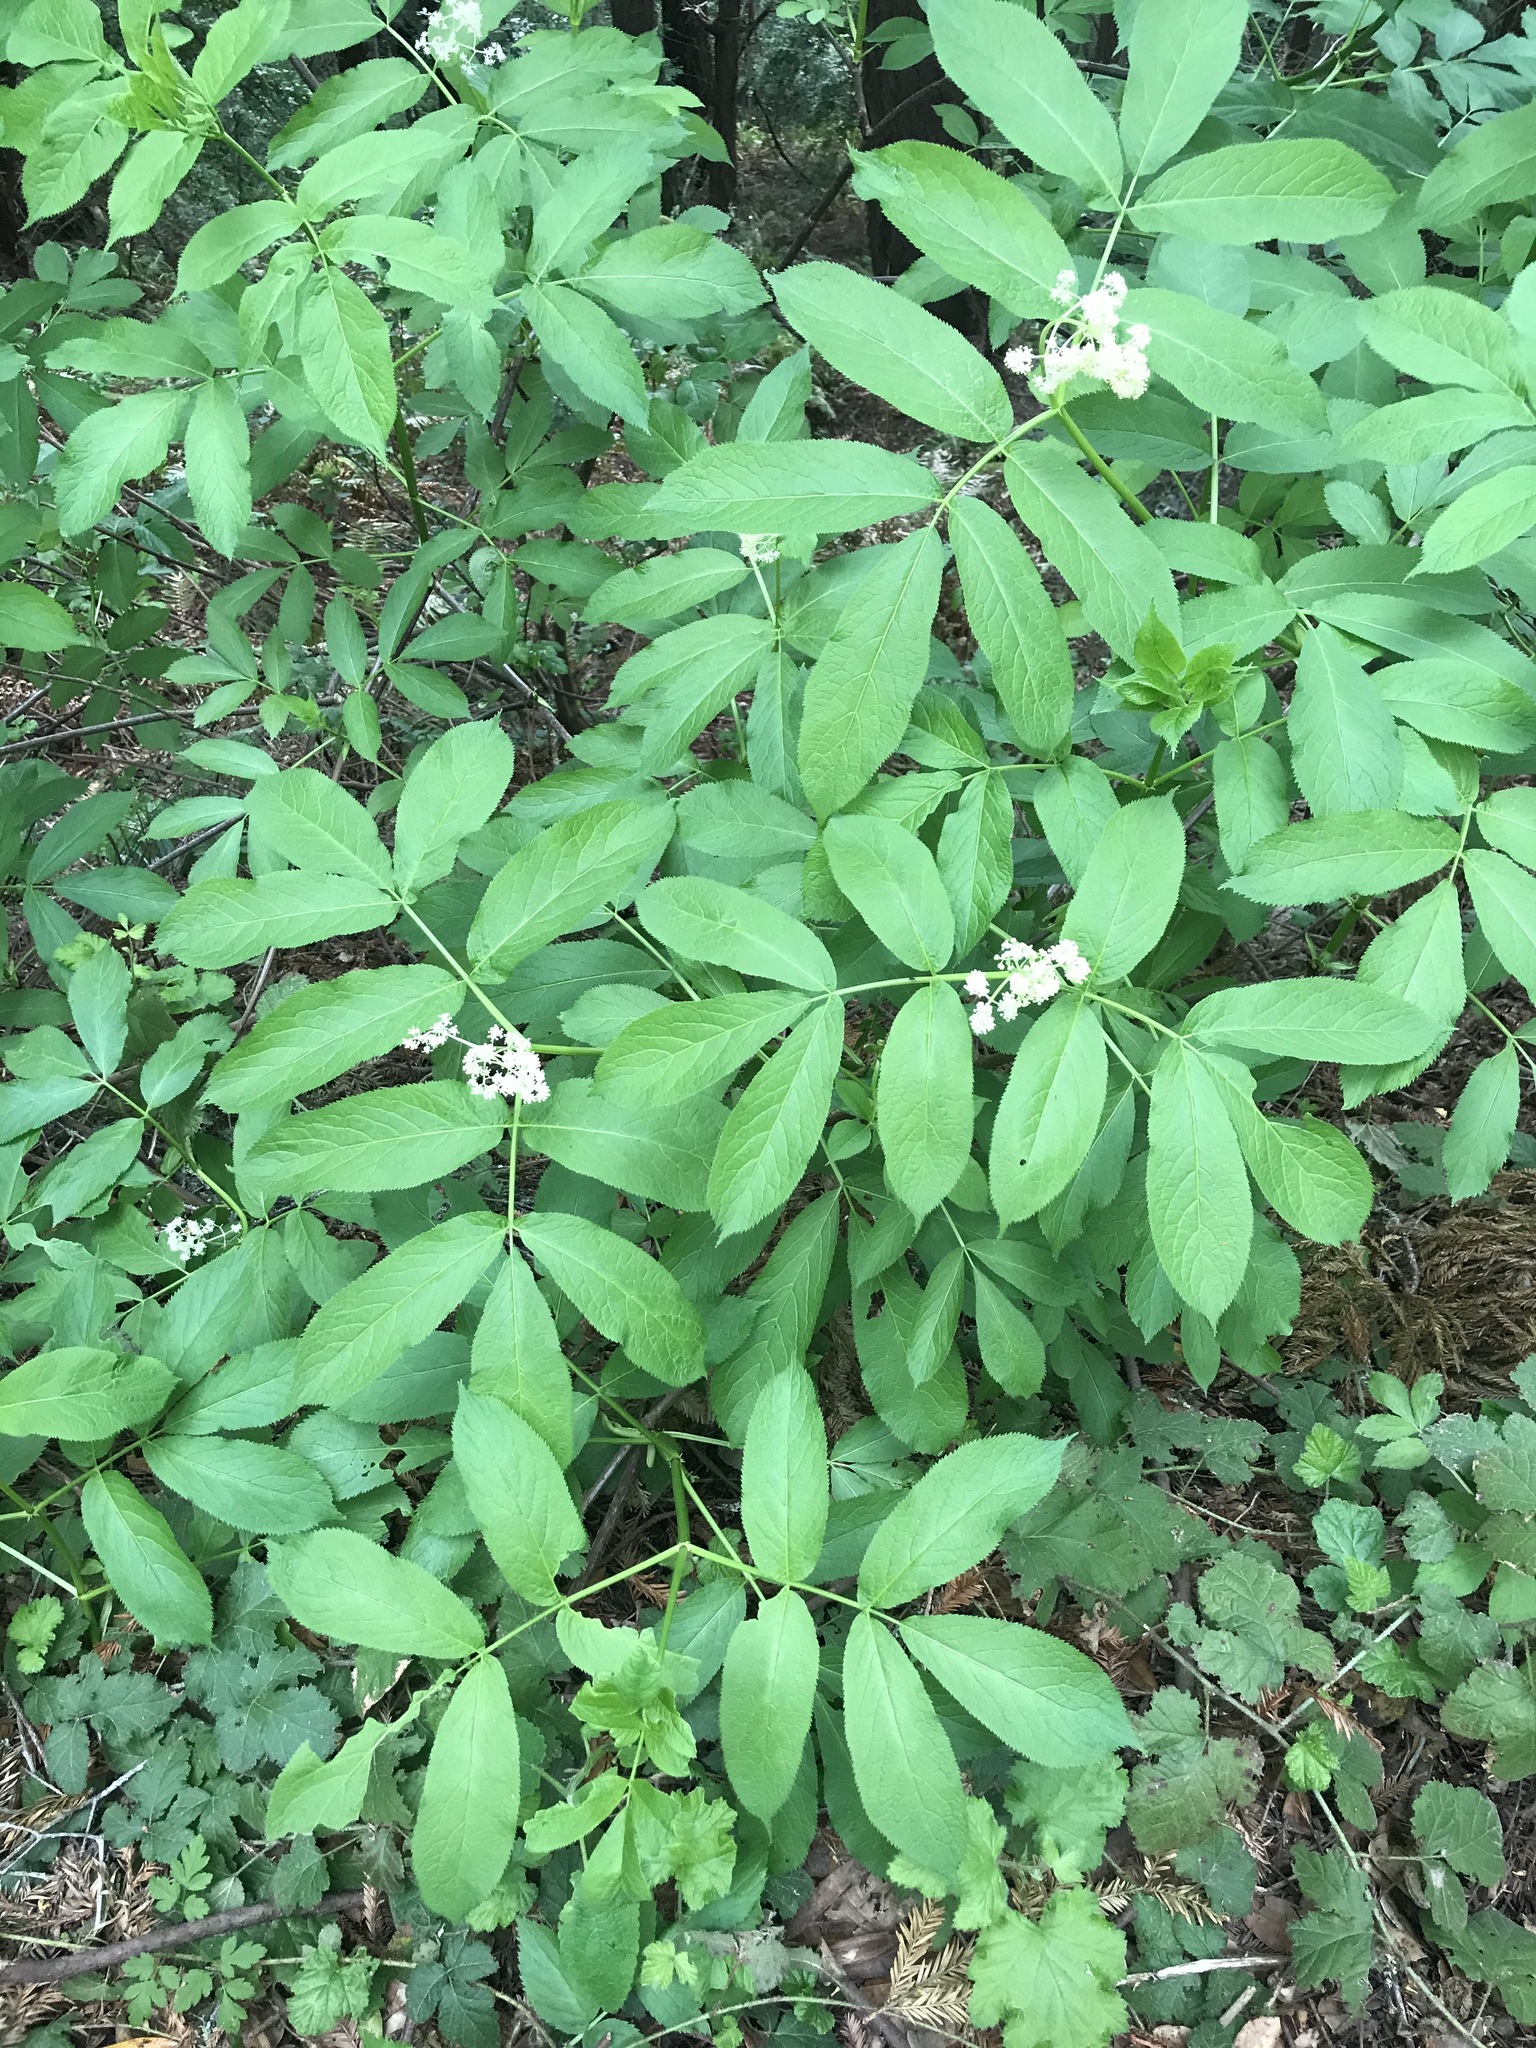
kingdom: Plantae
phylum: Tracheophyta
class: Magnoliopsida
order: Dipsacales
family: Viburnaceae
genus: Sambucus
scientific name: Sambucus racemosa
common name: Red-berried elder
